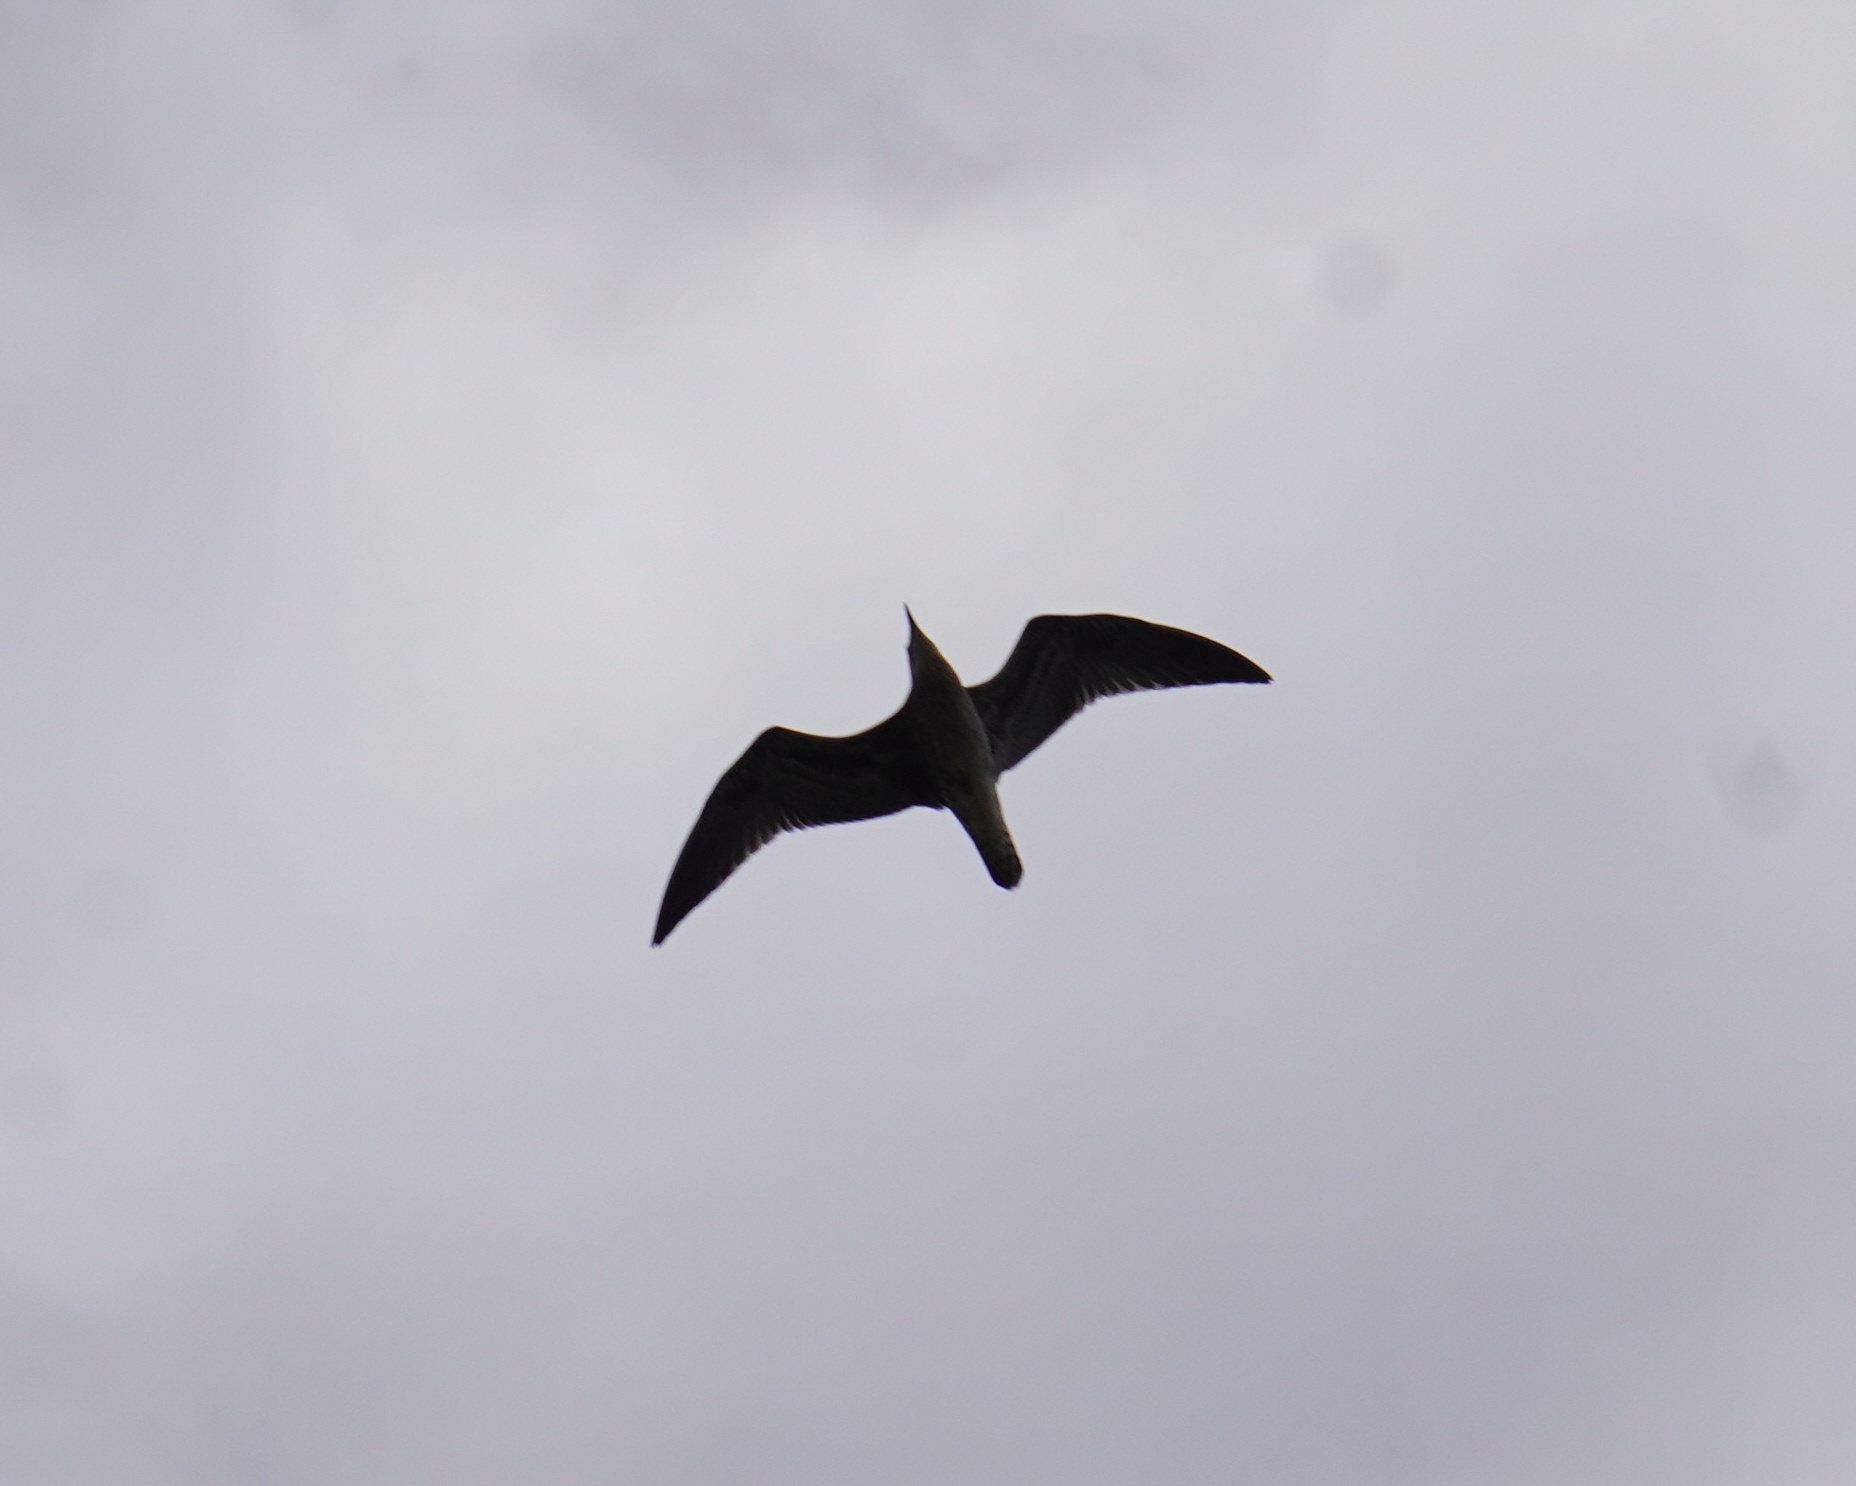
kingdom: Animalia
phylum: Chordata
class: Aves
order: Charadriiformes
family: Laridae
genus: Larus
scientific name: Larus
